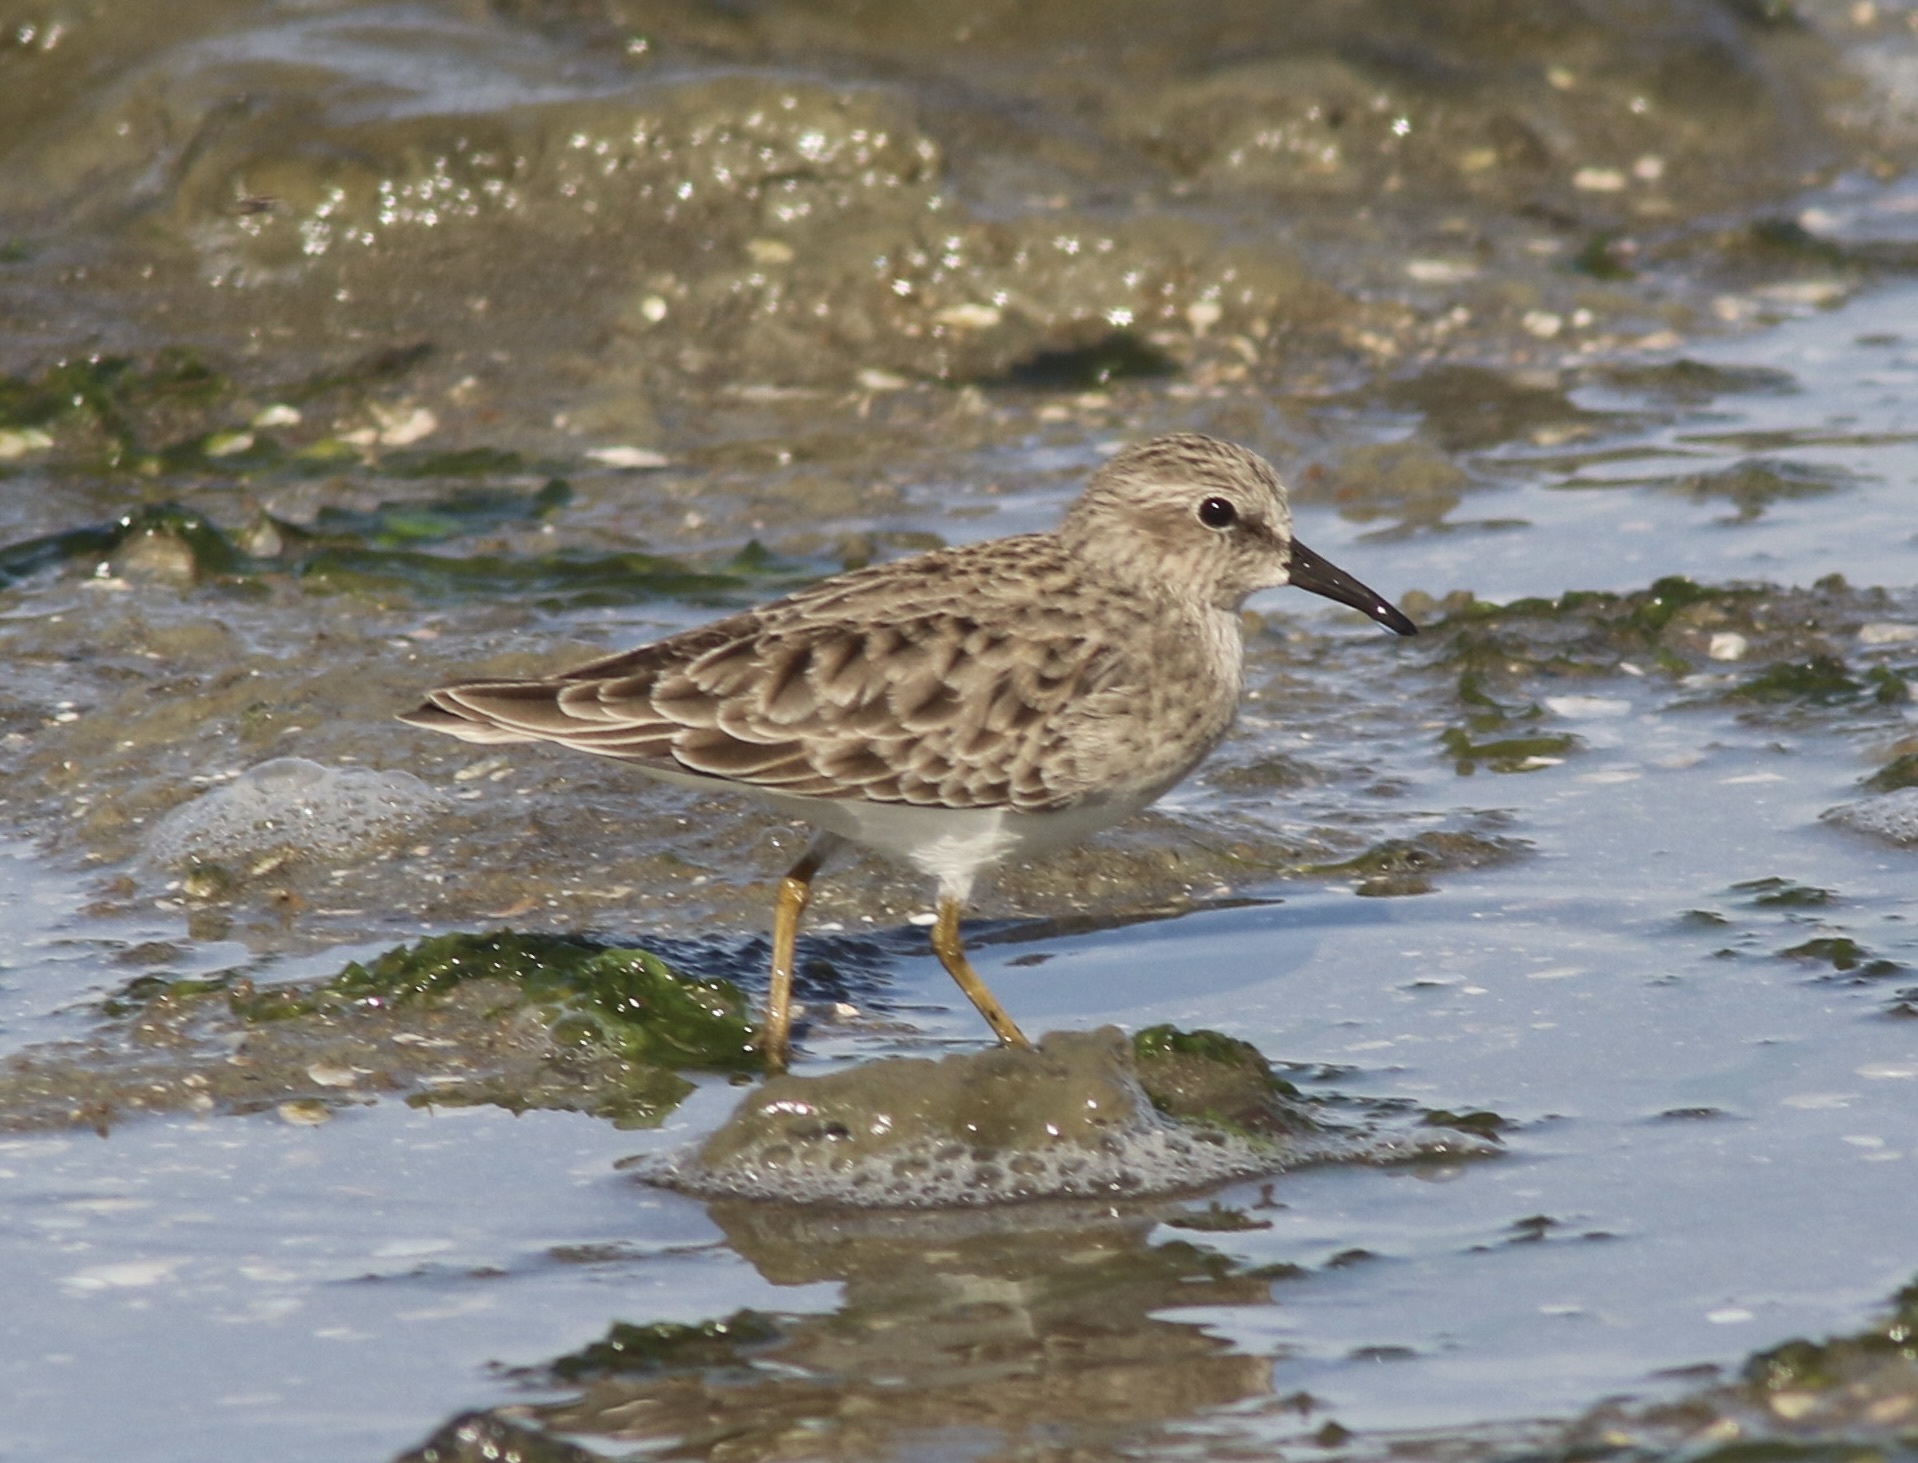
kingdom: Animalia
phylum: Chordata
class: Aves
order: Charadriiformes
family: Scolopacidae
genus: Calidris
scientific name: Calidris minutilla
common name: Least sandpiper
